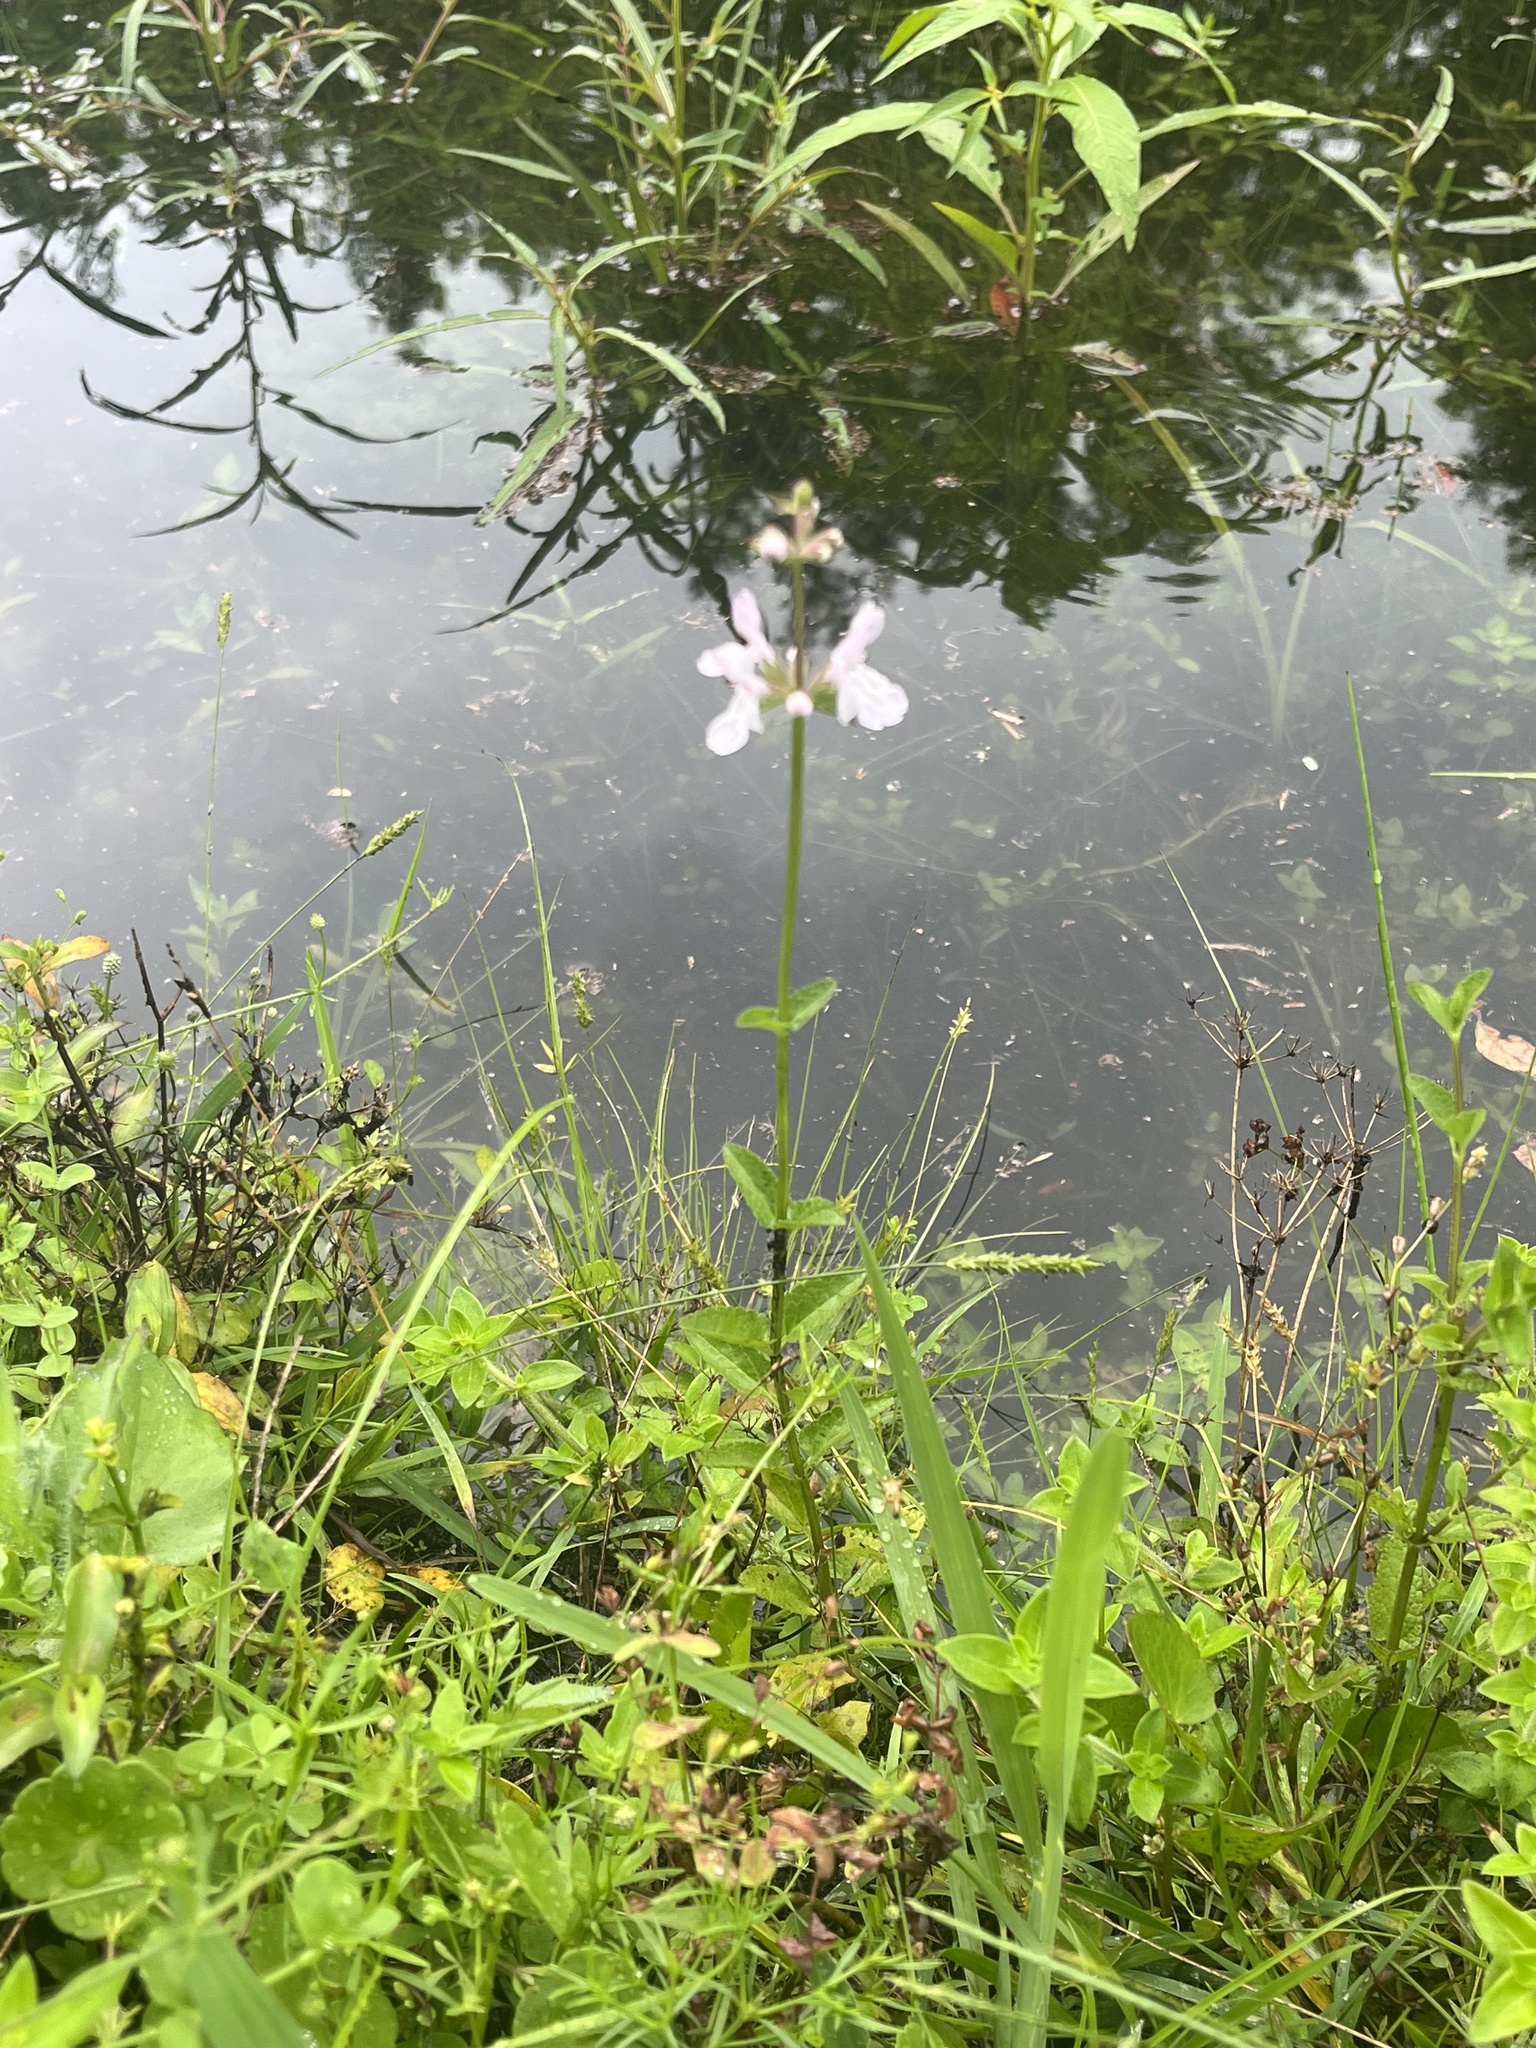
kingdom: Plantae
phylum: Tracheophyta
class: Magnoliopsida
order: Lamiales
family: Lamiaceae
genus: Stachys
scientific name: Stachys floridana
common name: Florida betony
